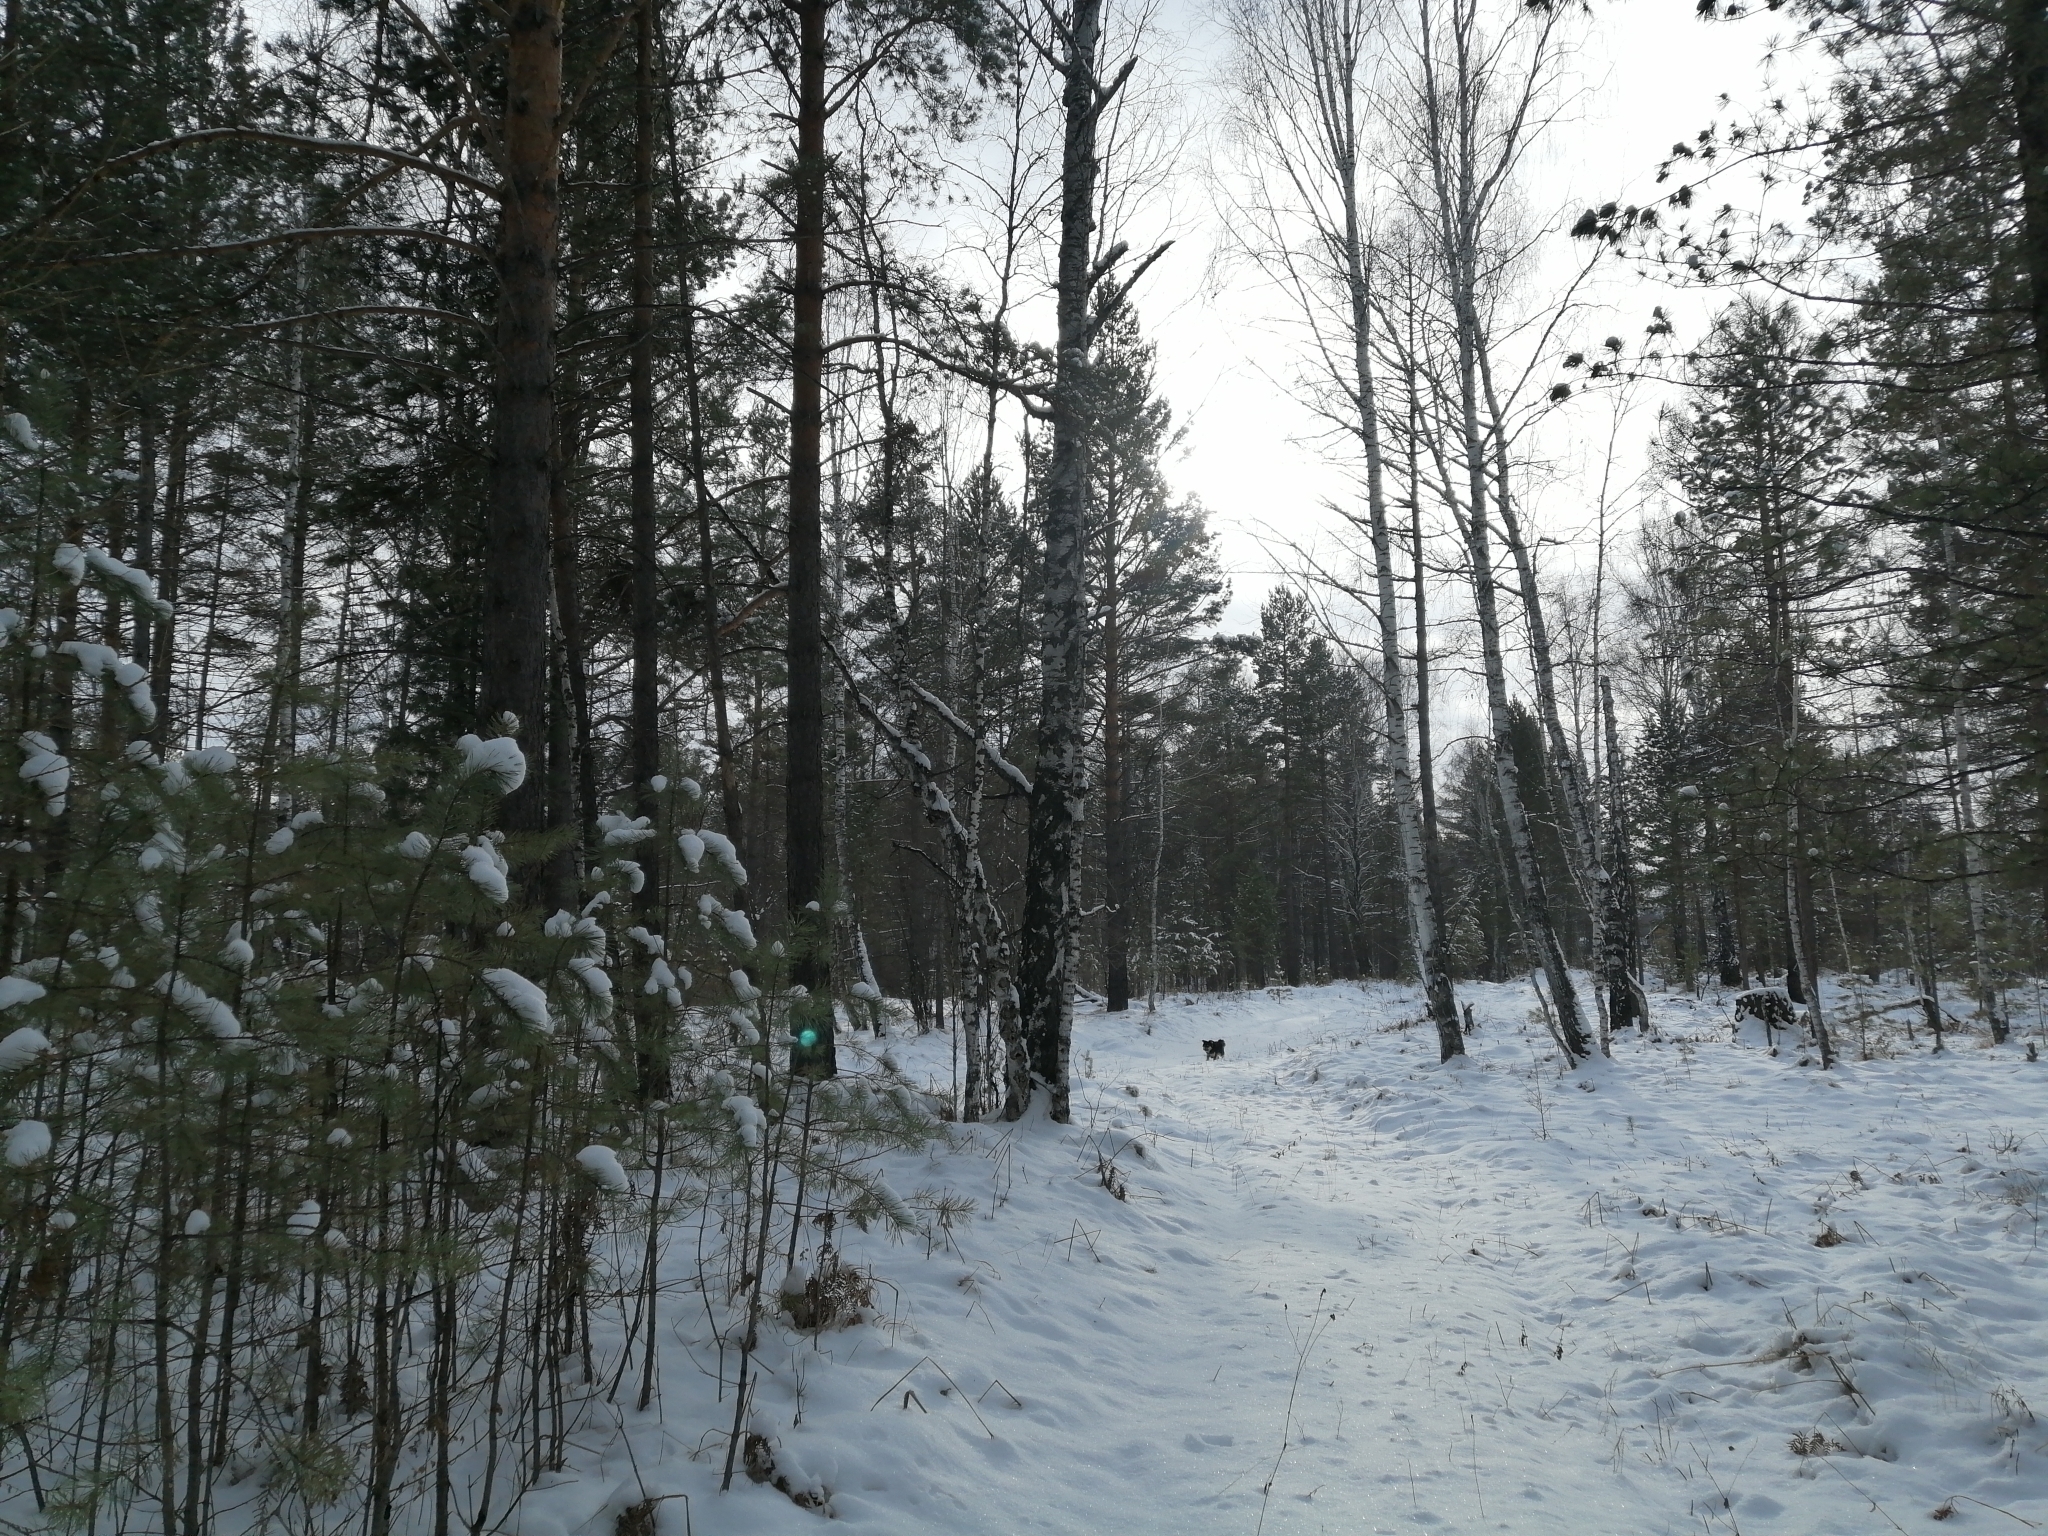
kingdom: Plantae
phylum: Tracheophyta
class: Pinopsida
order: Pinales
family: Pinaceae
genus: Pinus
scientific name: Pinus sylvestris
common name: Scots pine
